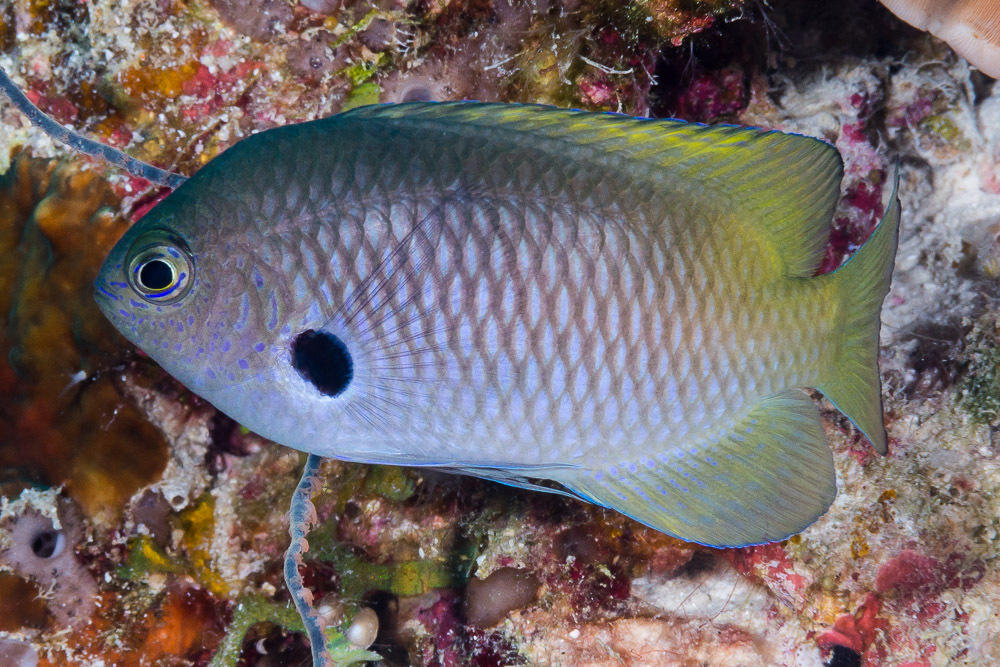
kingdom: Animalia
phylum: Chordata
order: Perciformes
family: Pomacentridae
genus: Pomacentrus
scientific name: Pomacentrus nigromarginatus
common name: Blackmargined damsel
